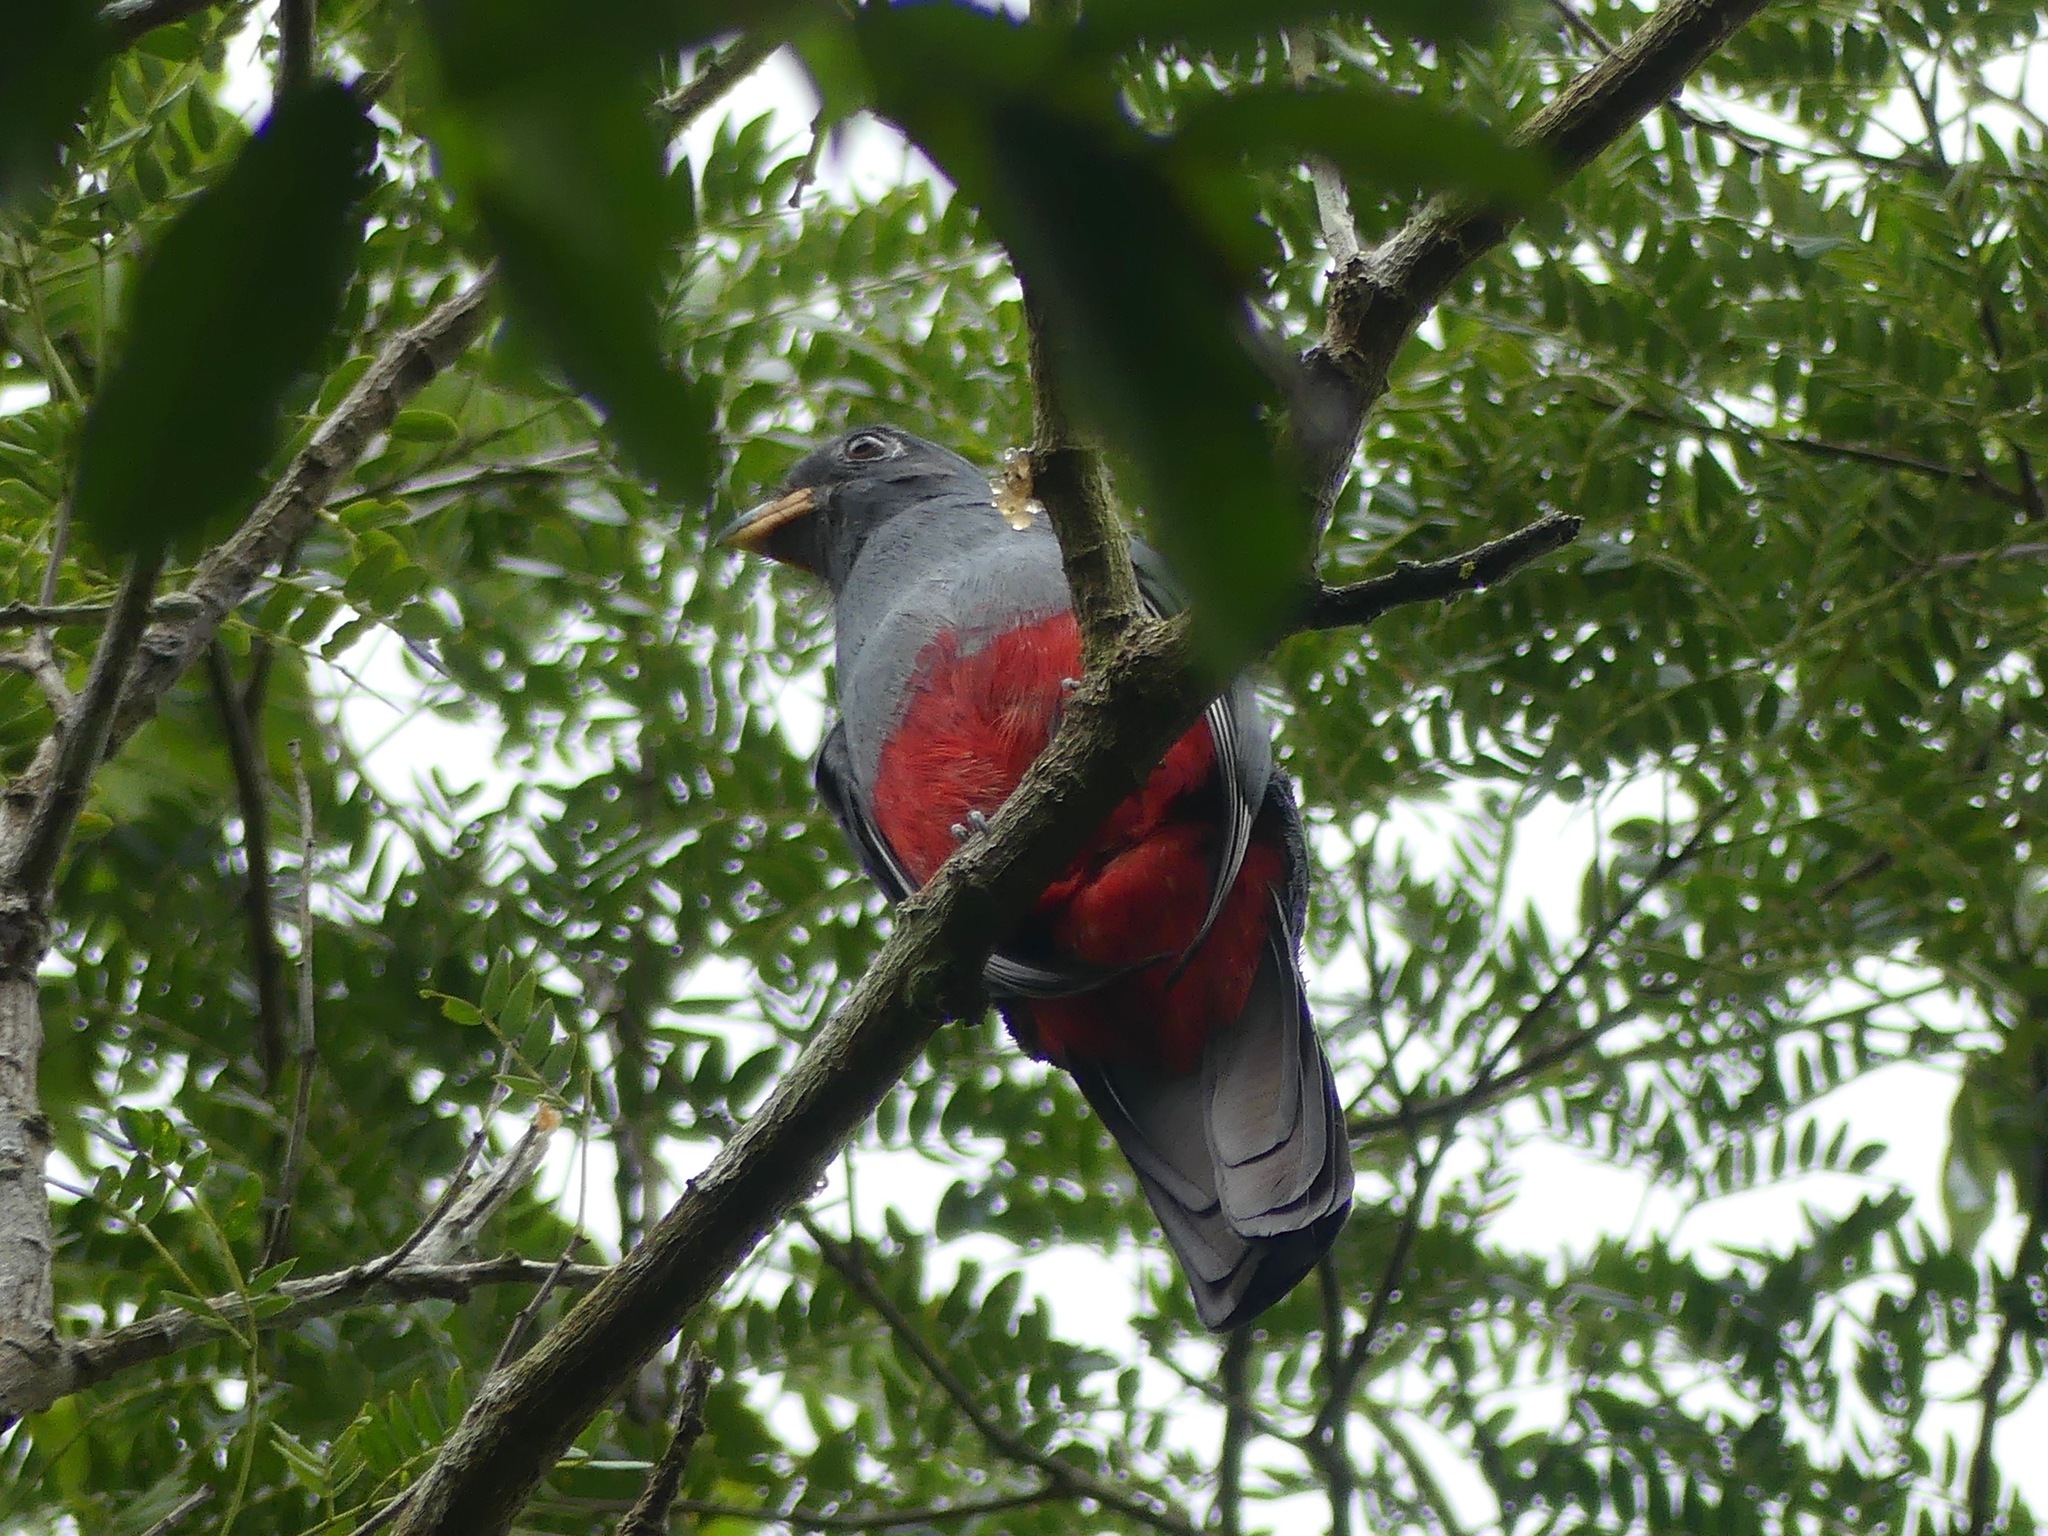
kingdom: Animalia
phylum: Chordata
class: Aves
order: Trogoniformes
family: Trogonidae
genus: Trogon
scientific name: Trogon melanurus
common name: Black-tailed trogon
